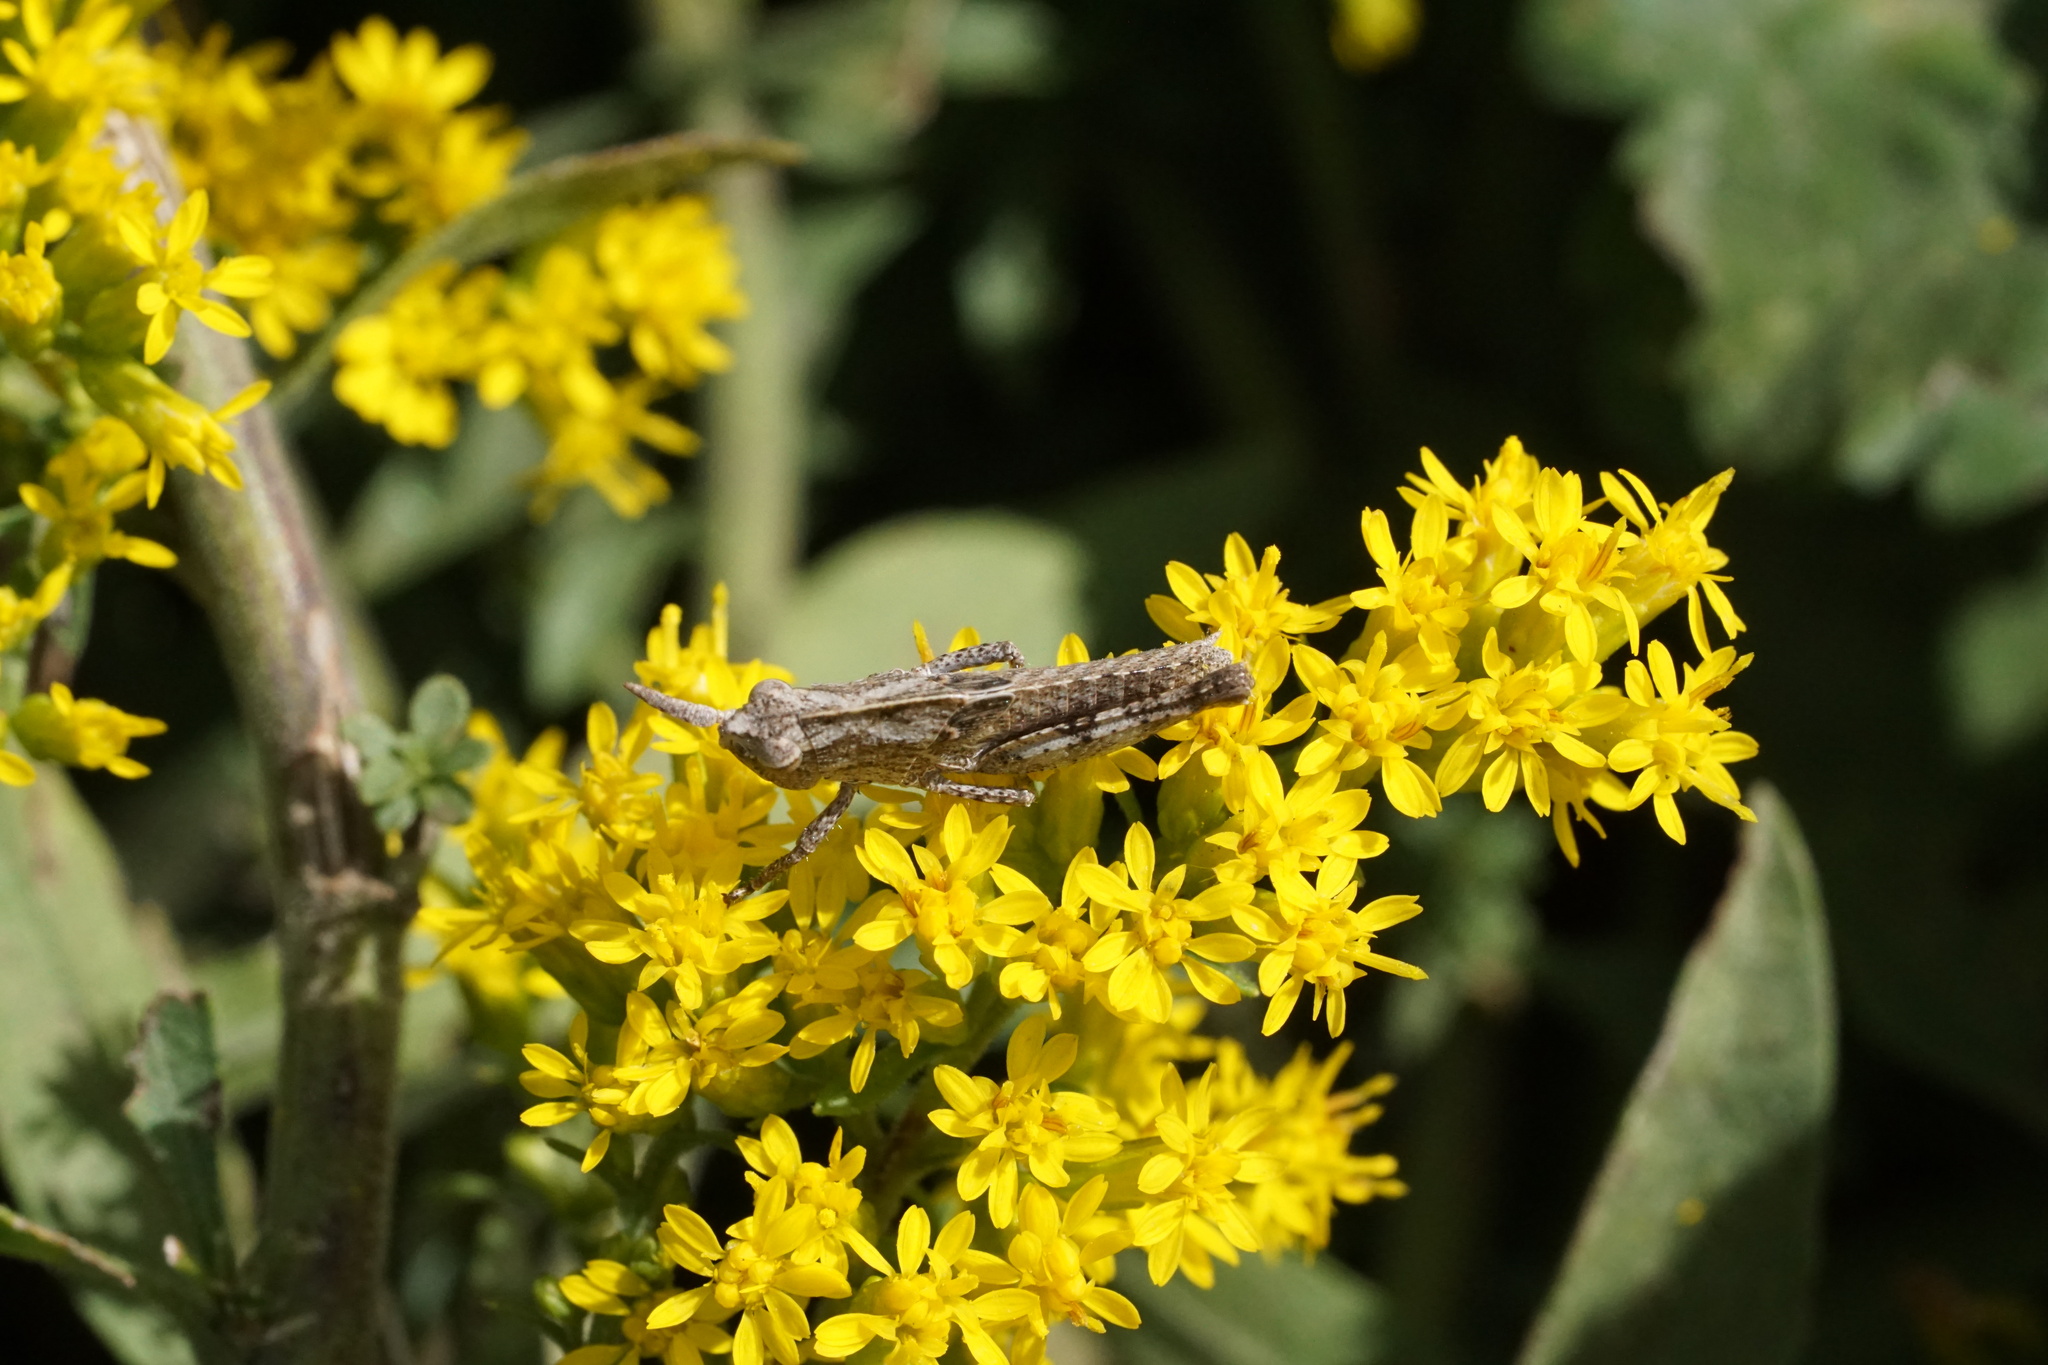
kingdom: Animalia
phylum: Arthropoda
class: Insecta
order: Orthoptera
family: Acrididae
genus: Chortophaga
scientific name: Chortophaga viridifasciata
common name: Green-striped grasshopper
